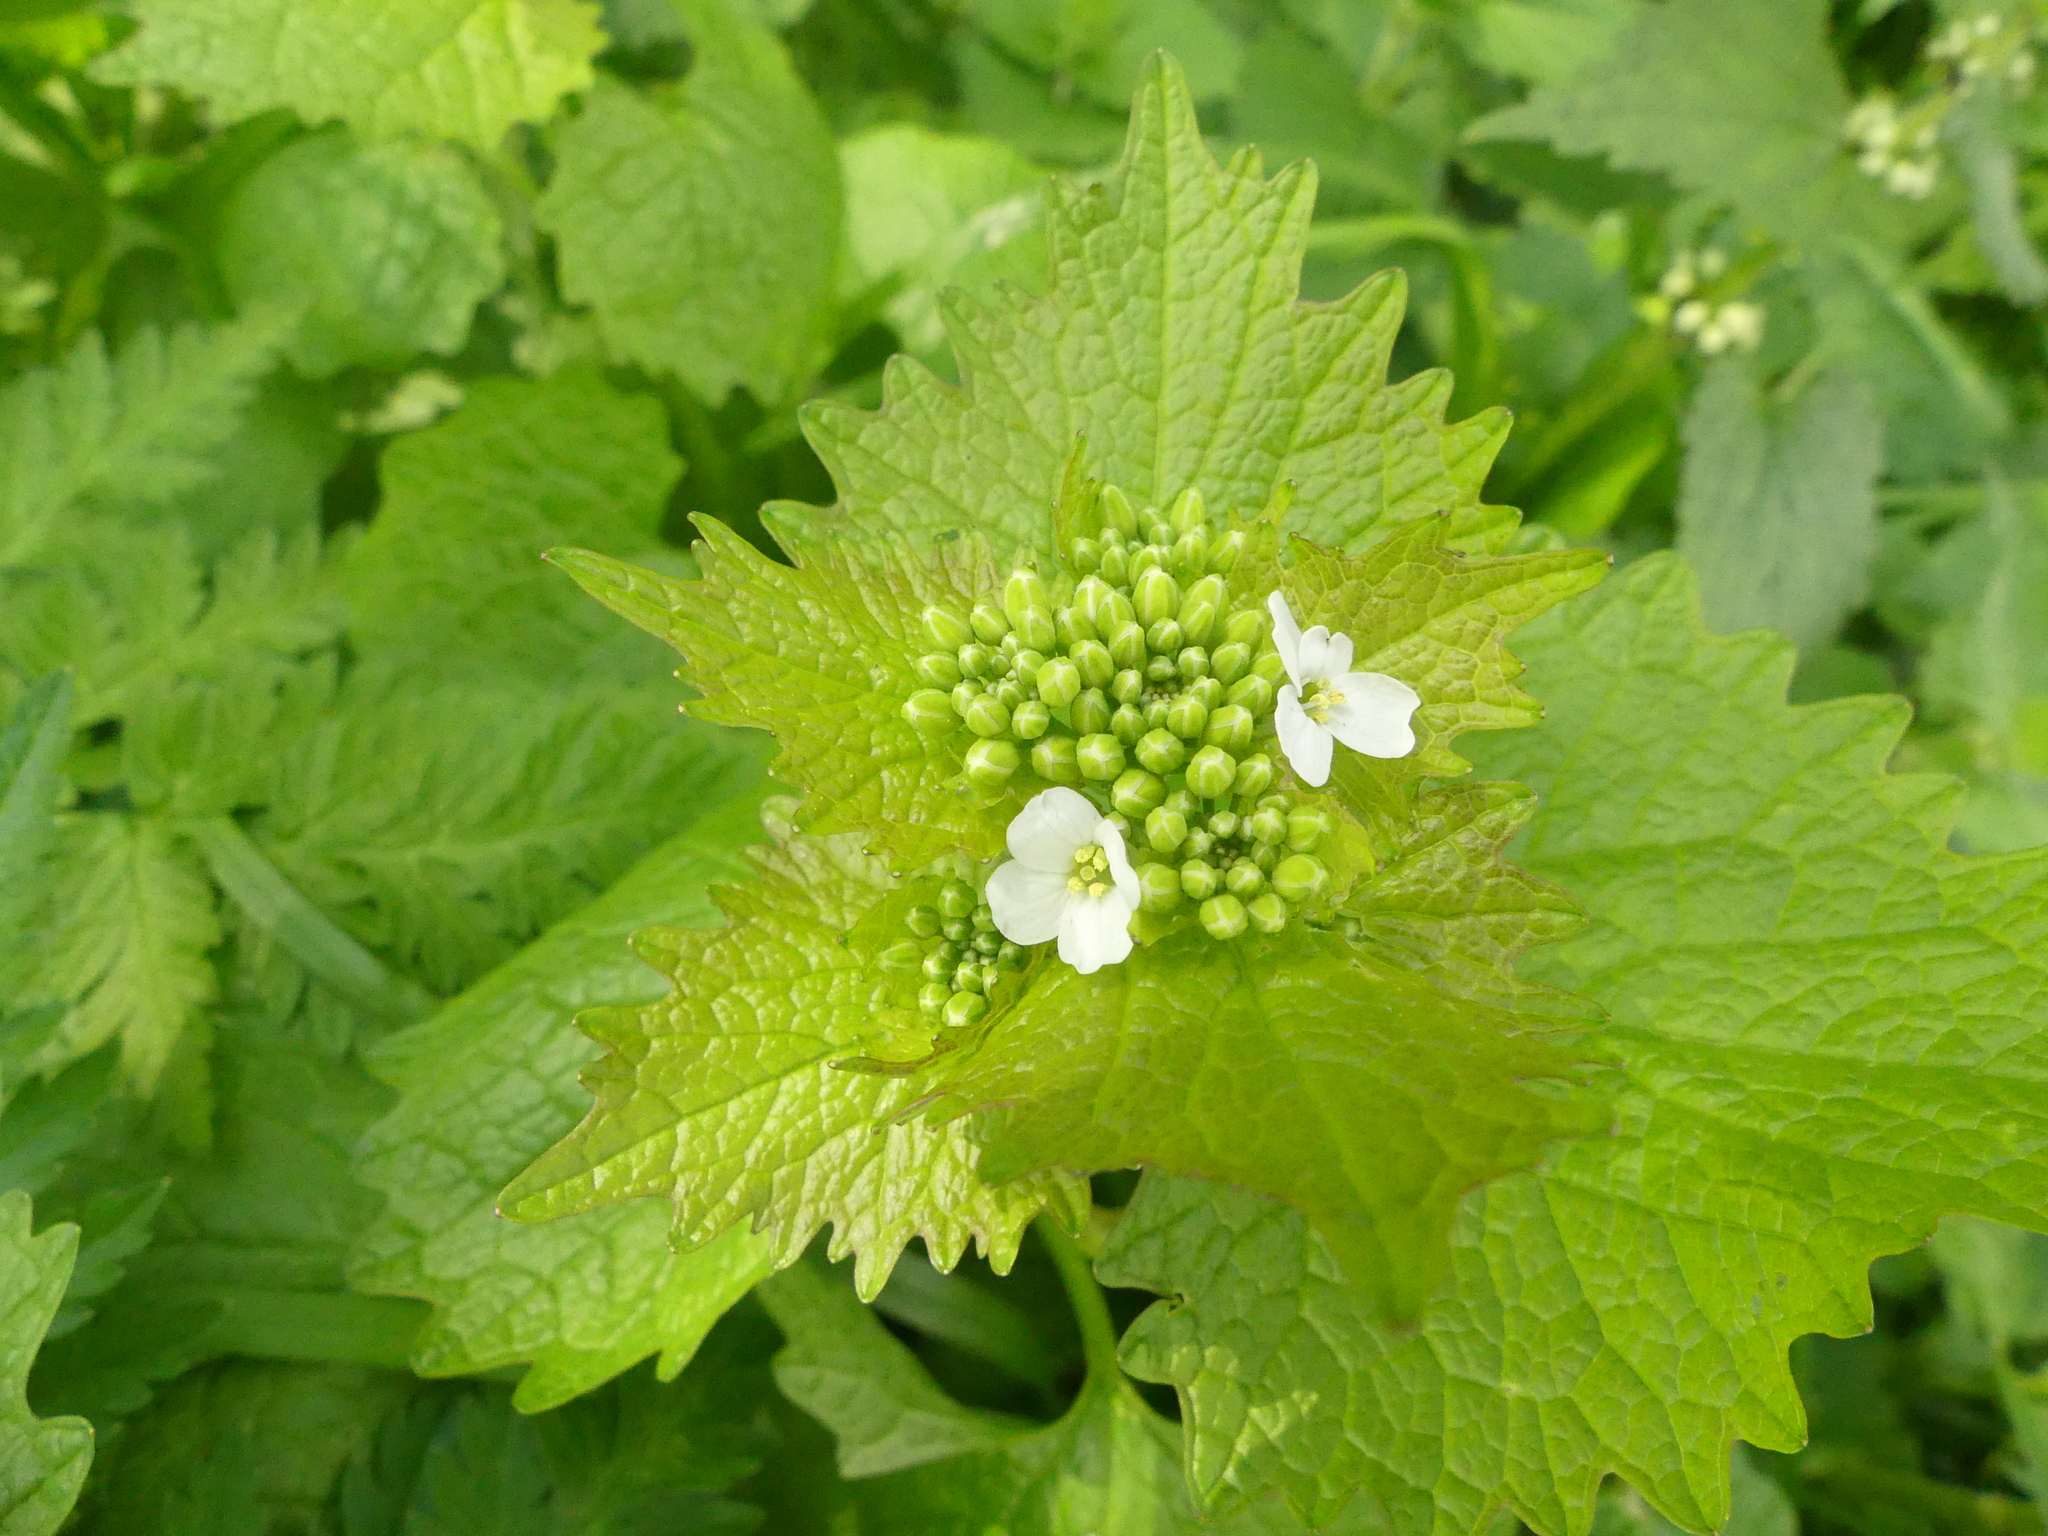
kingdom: Plantae
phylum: Tracheophyta
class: Magnoliopsida
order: Brassicales
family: Brassicaceae
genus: Alliaria
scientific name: Alliaria petiolata
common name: Garlic mustard
